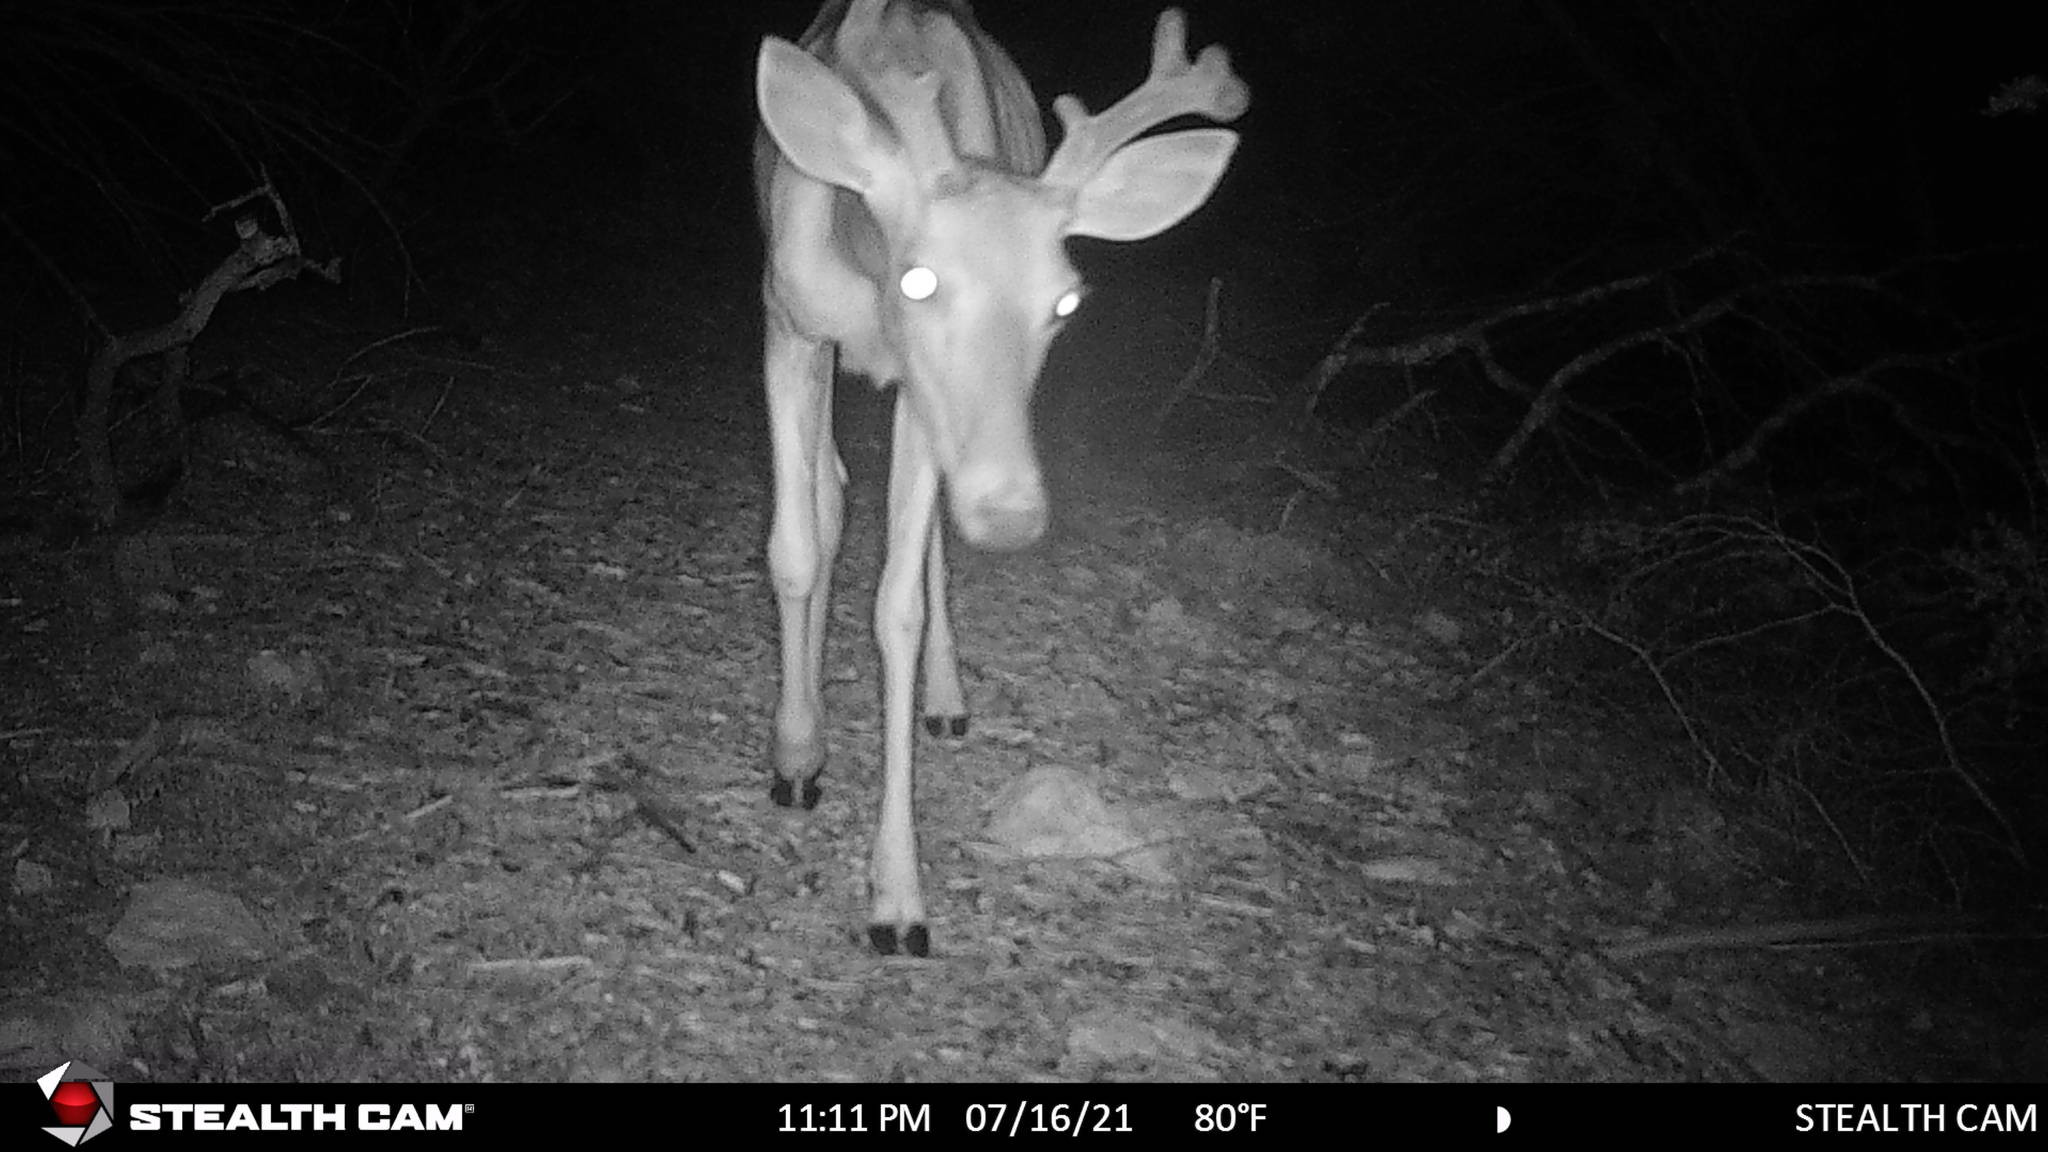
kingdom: Animalia
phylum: Chordata
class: Mammalia
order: Artiodactyla
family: Cervidae
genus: Odocoileus
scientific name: Odocoileus virginianus
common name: White-tailed deer
